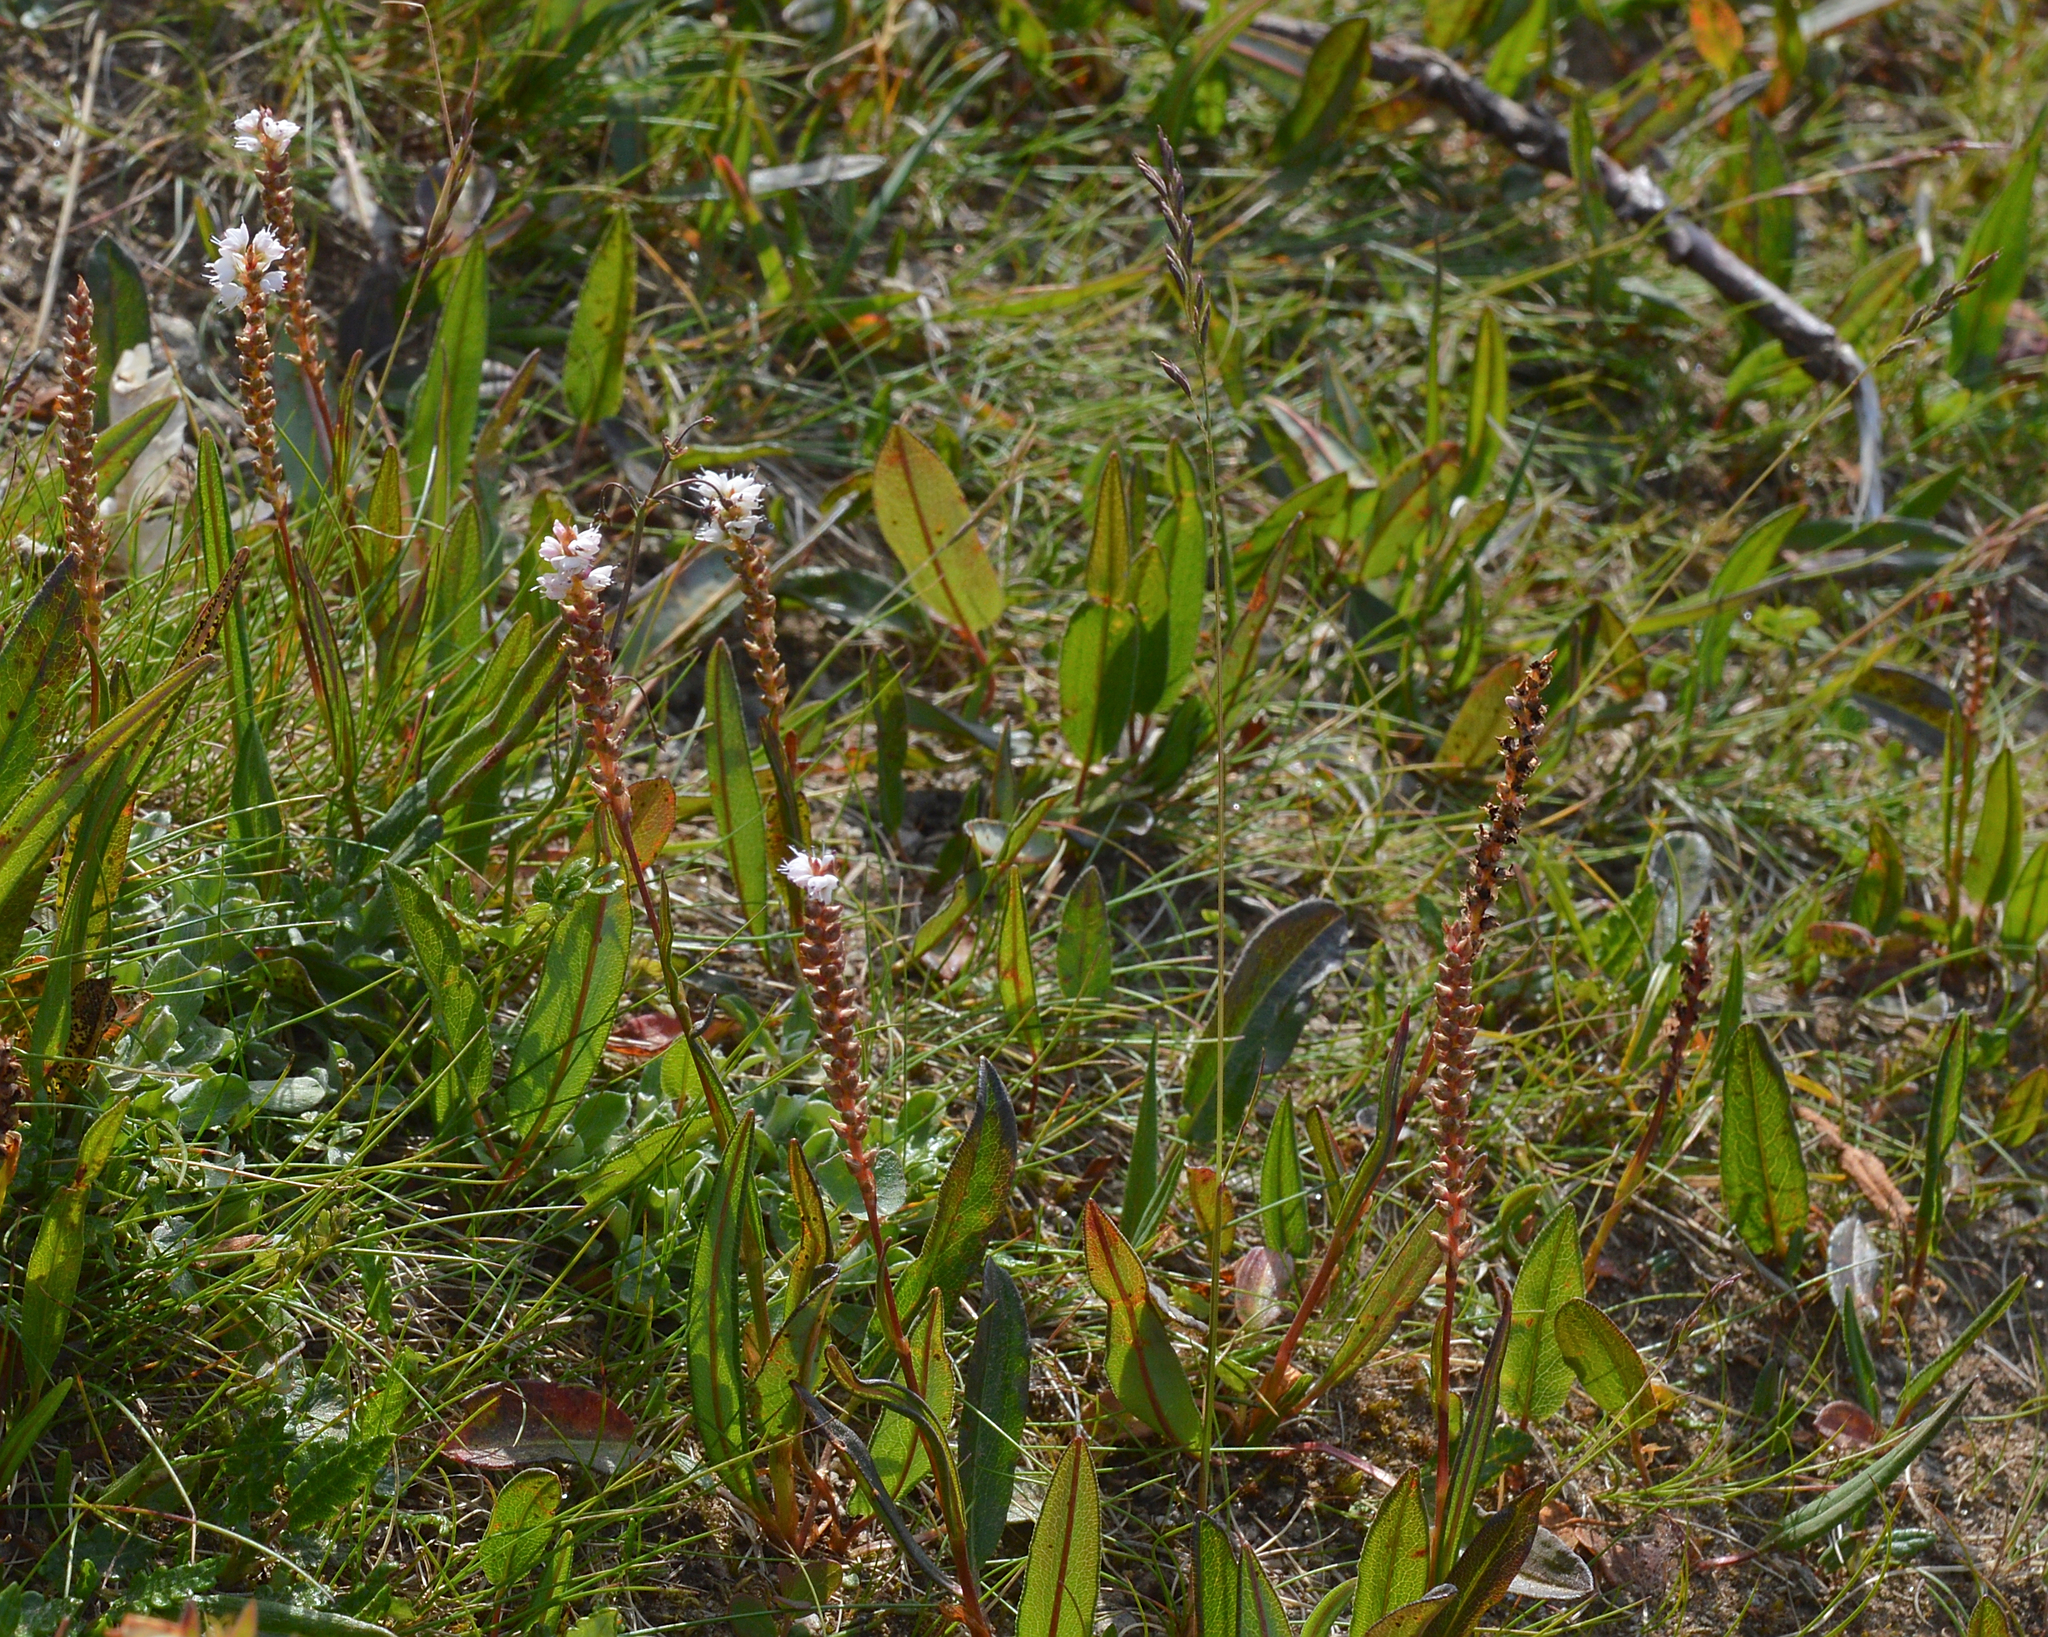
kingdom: Plantae
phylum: Tracheophyta
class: Magnoliopsida
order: Caryophyllales
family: Polygonaceae
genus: Bistorta
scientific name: Bistorta vivipara
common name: Alpine bistort
